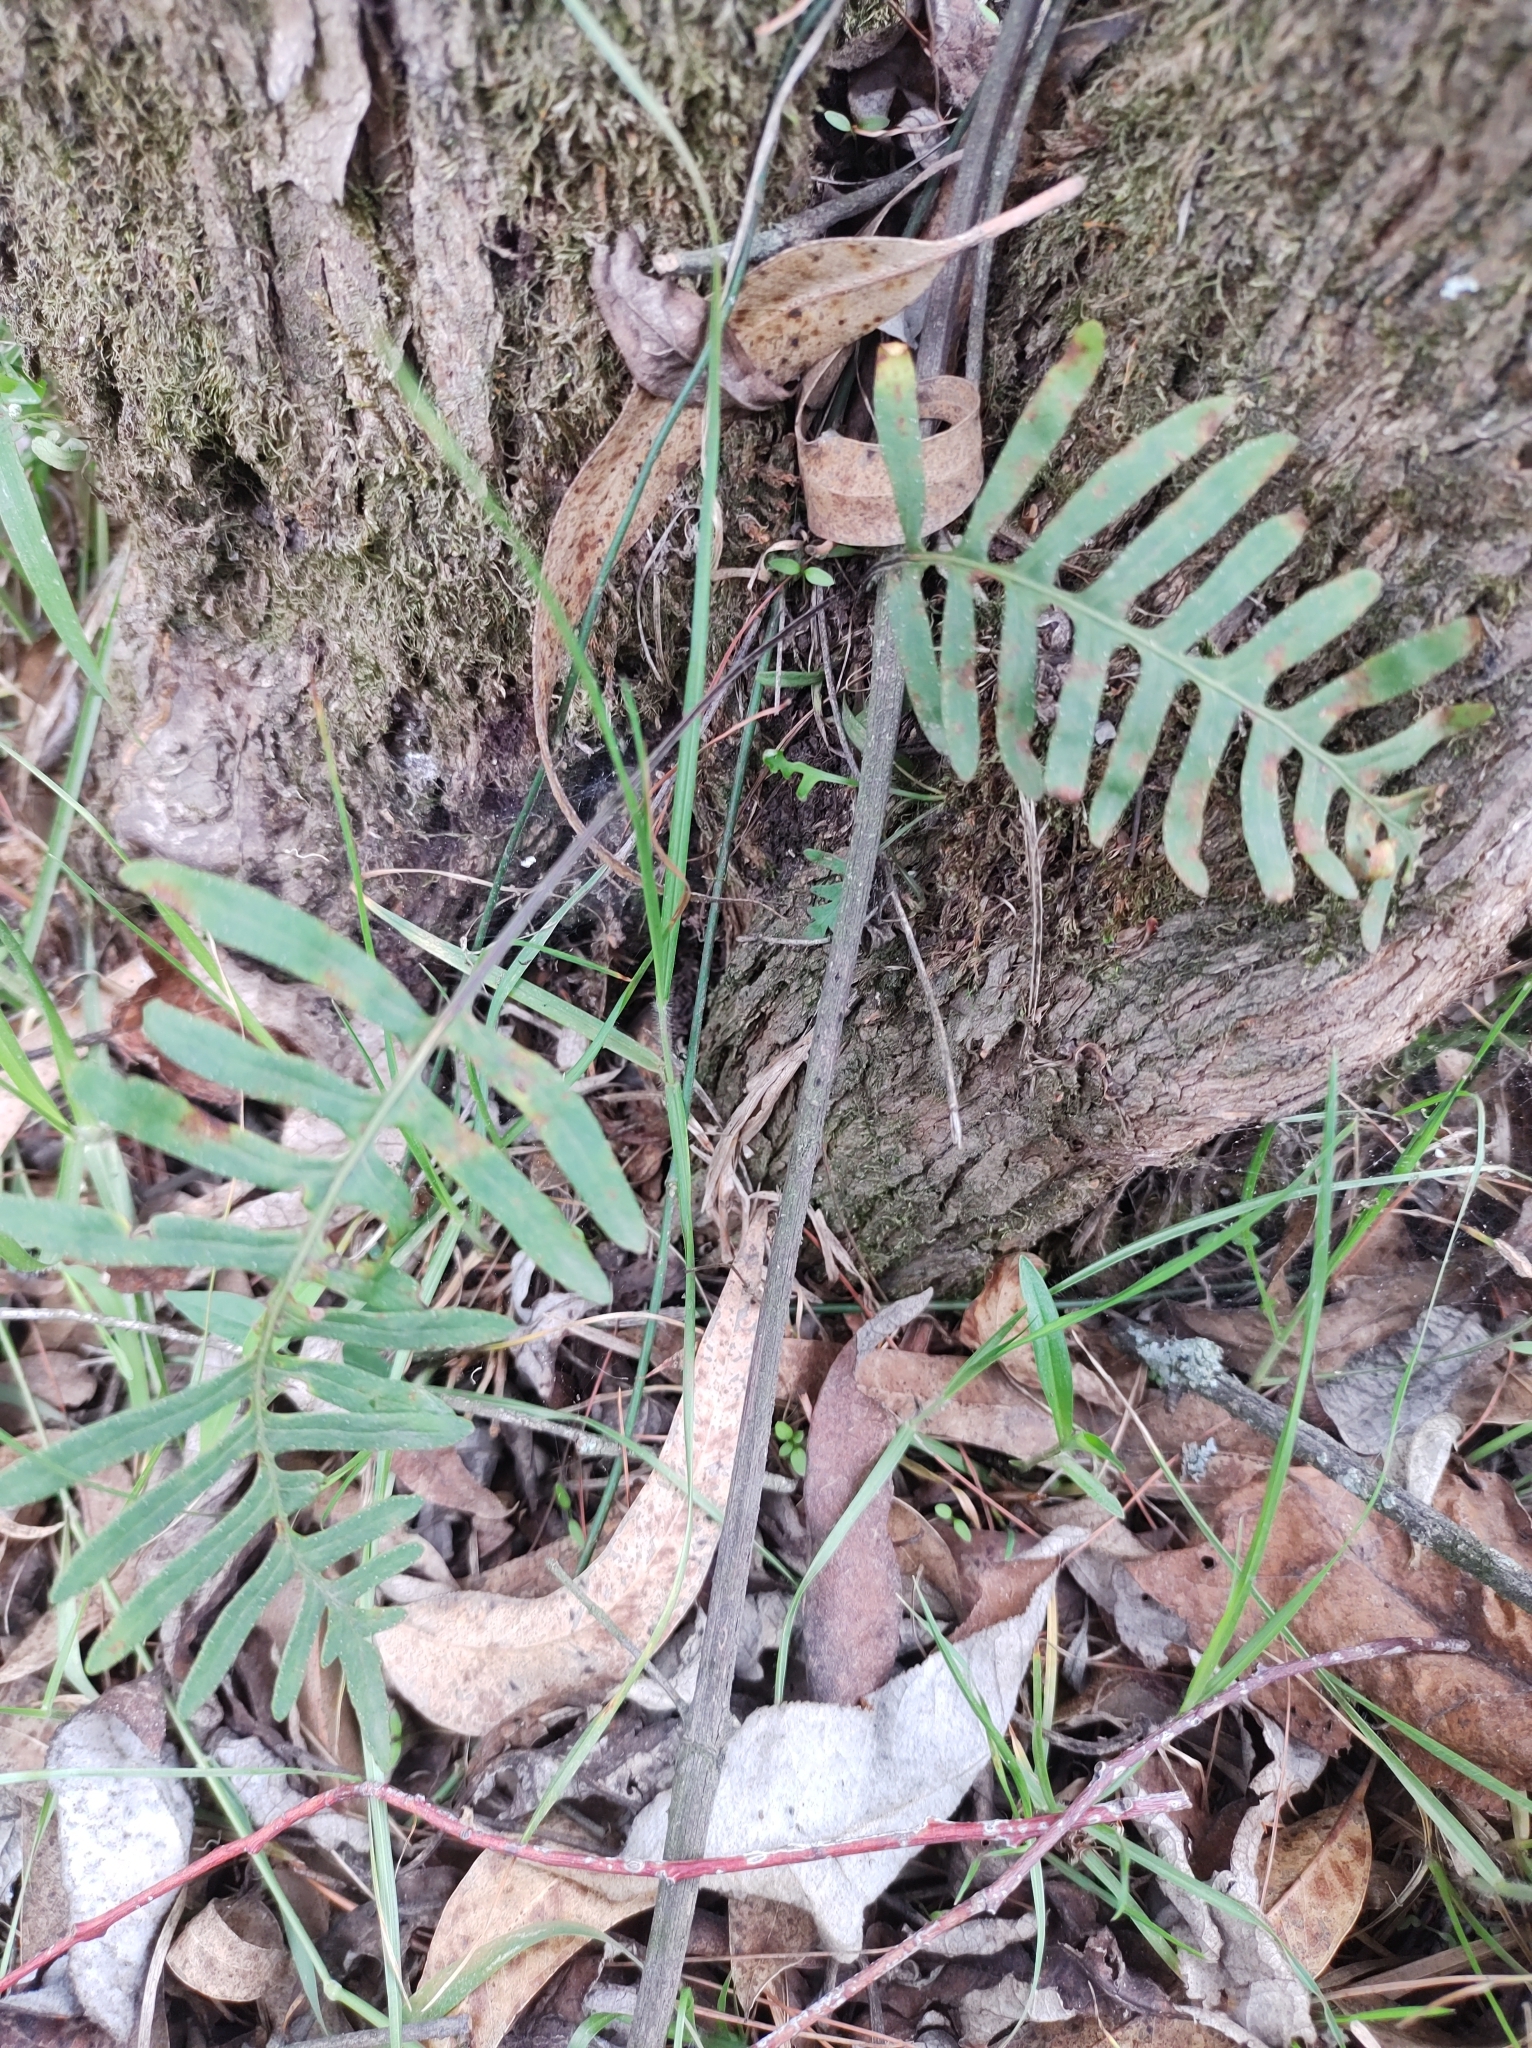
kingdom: Plantae
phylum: Tracheophyta
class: Polypodiopsida
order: Polypodiales
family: Polypodiaceae
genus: Pleopeltis
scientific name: Pleopeltis michauxiana
